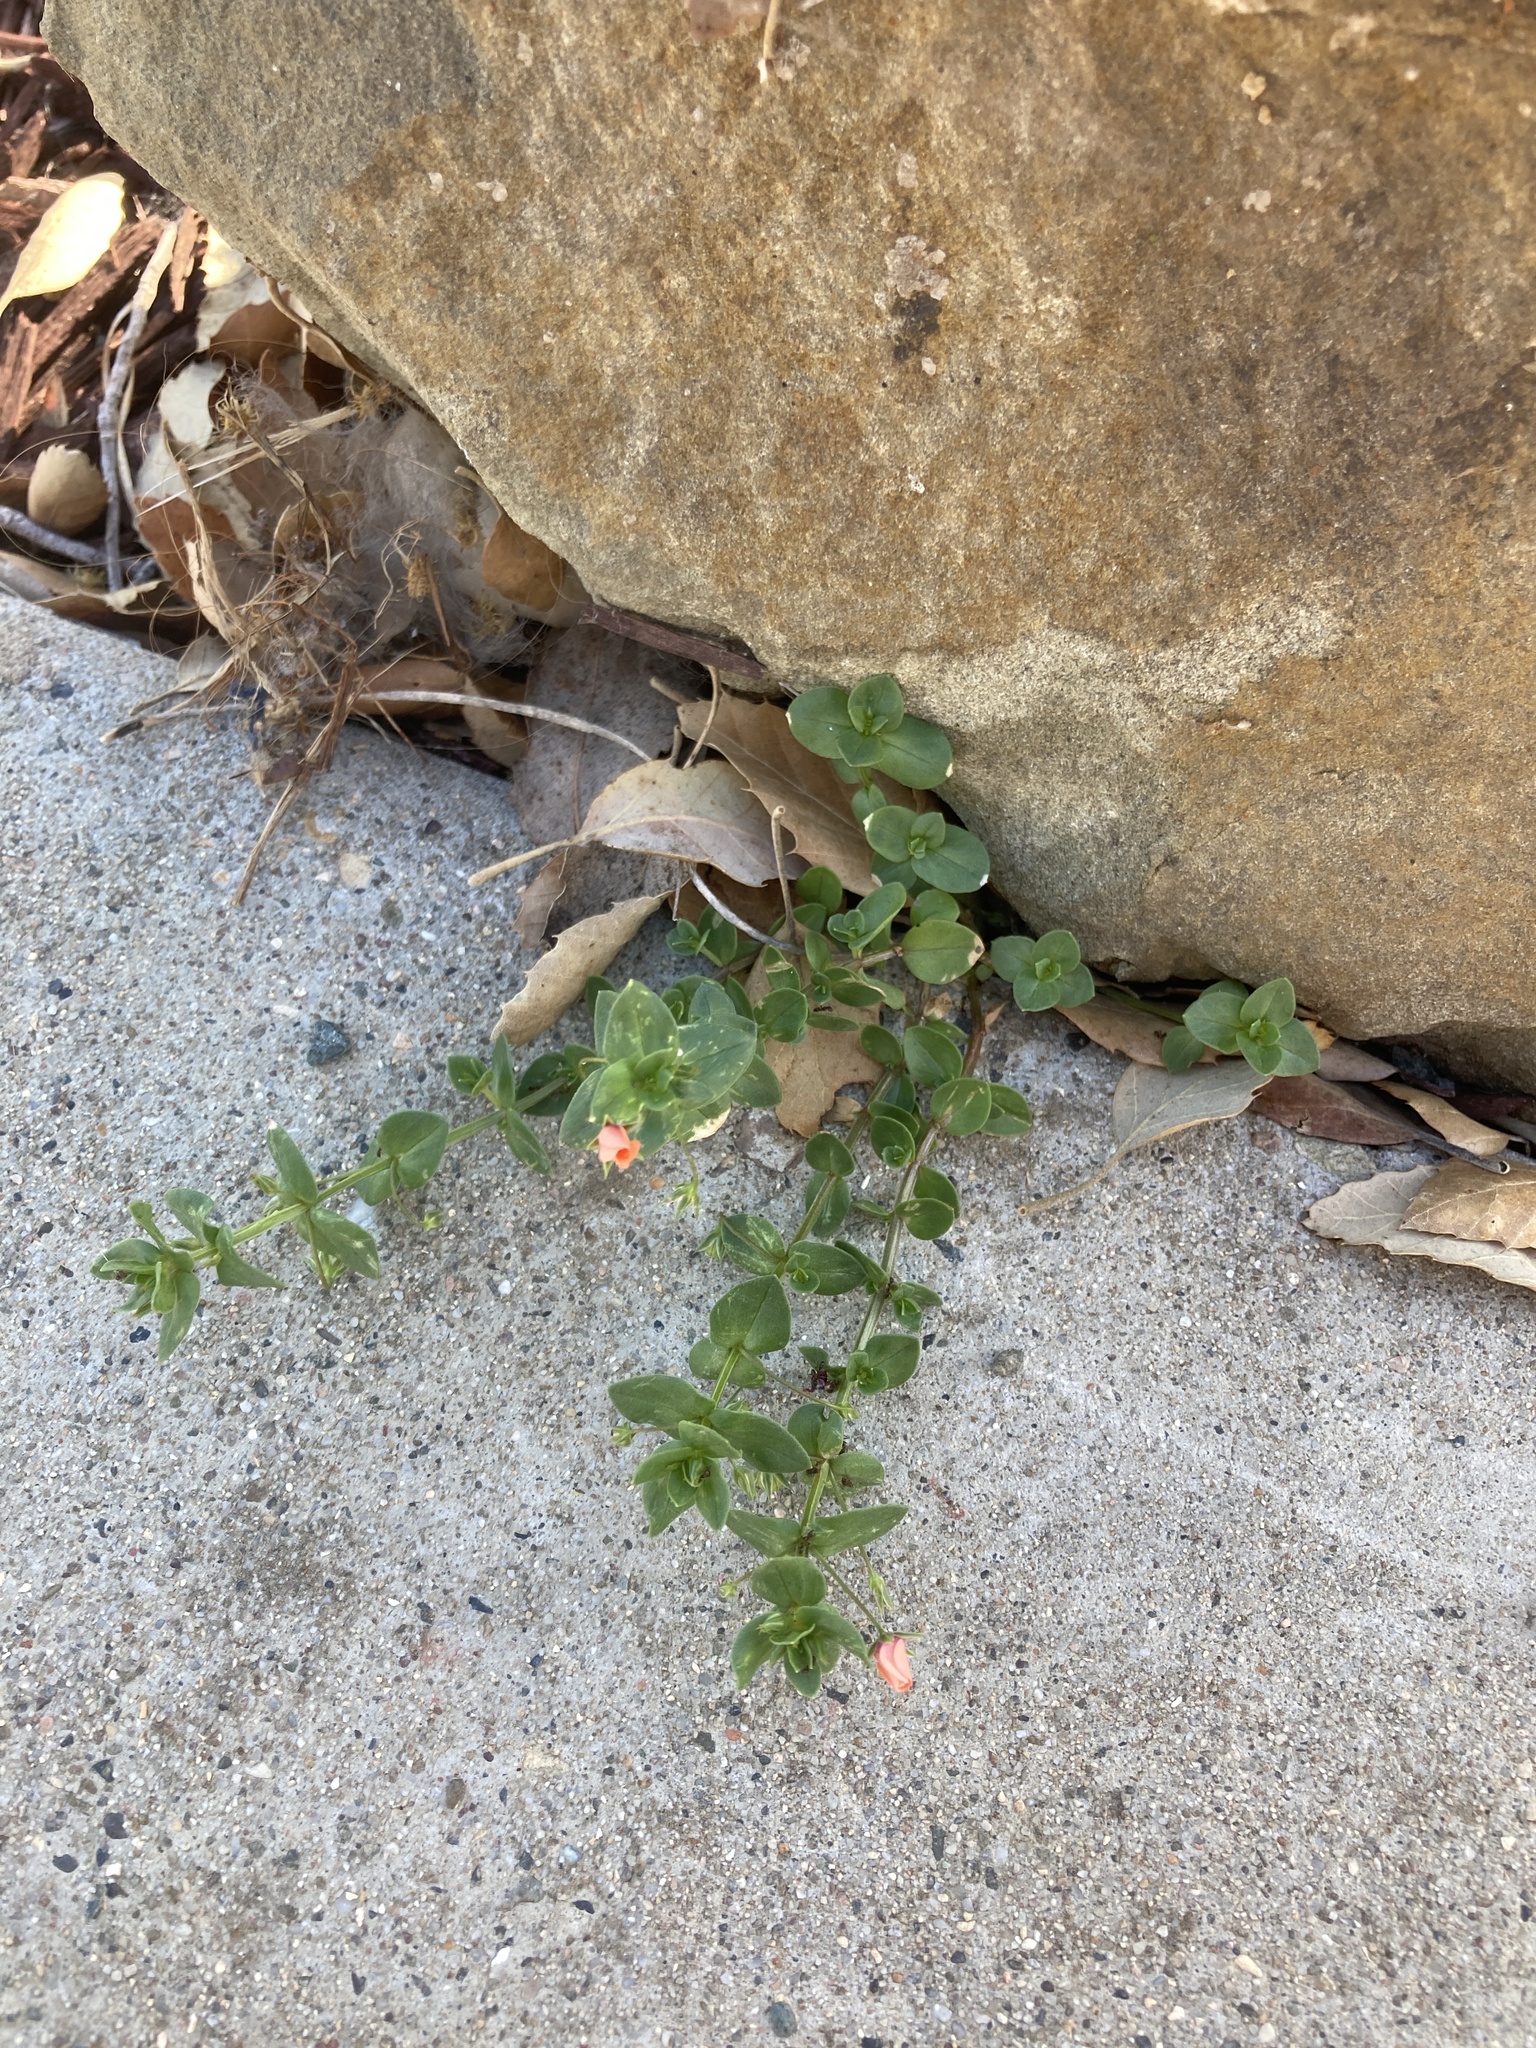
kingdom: Plantae
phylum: Tracheophyta
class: Magnoliopsida
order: Ericales
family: Primulaceae
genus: Lysimachia
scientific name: Lysimachia arvensis
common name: Scarlet pimpernel
